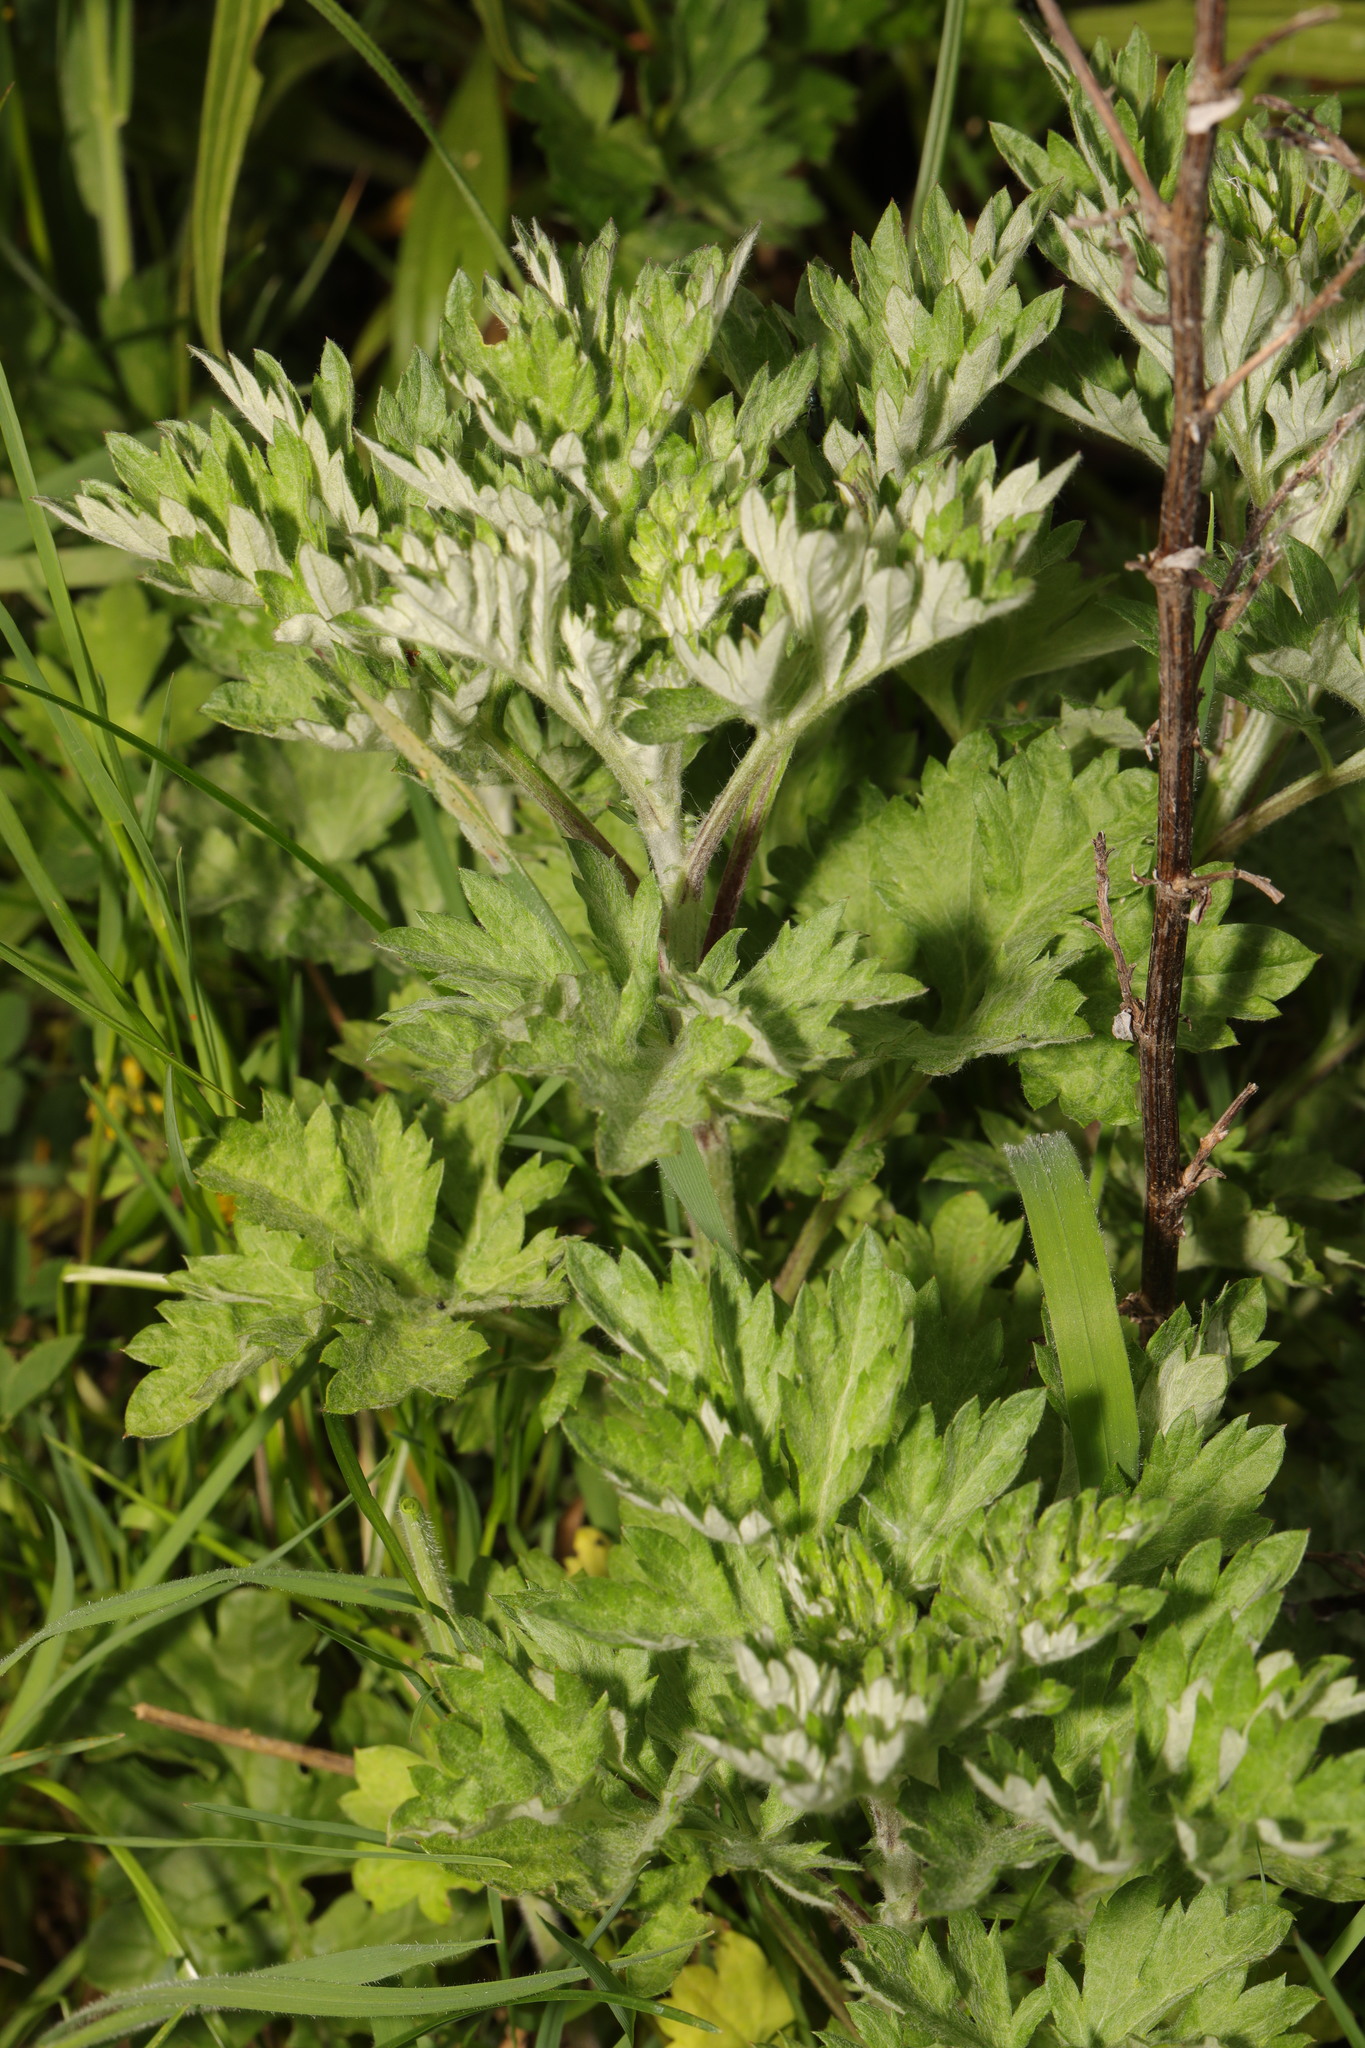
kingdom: Plantae
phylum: Tracheophyta
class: Magnoliopsida
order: Asterales
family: Asteraceae
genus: Artemisia
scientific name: Artemisia vulgaris
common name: Mugwort
